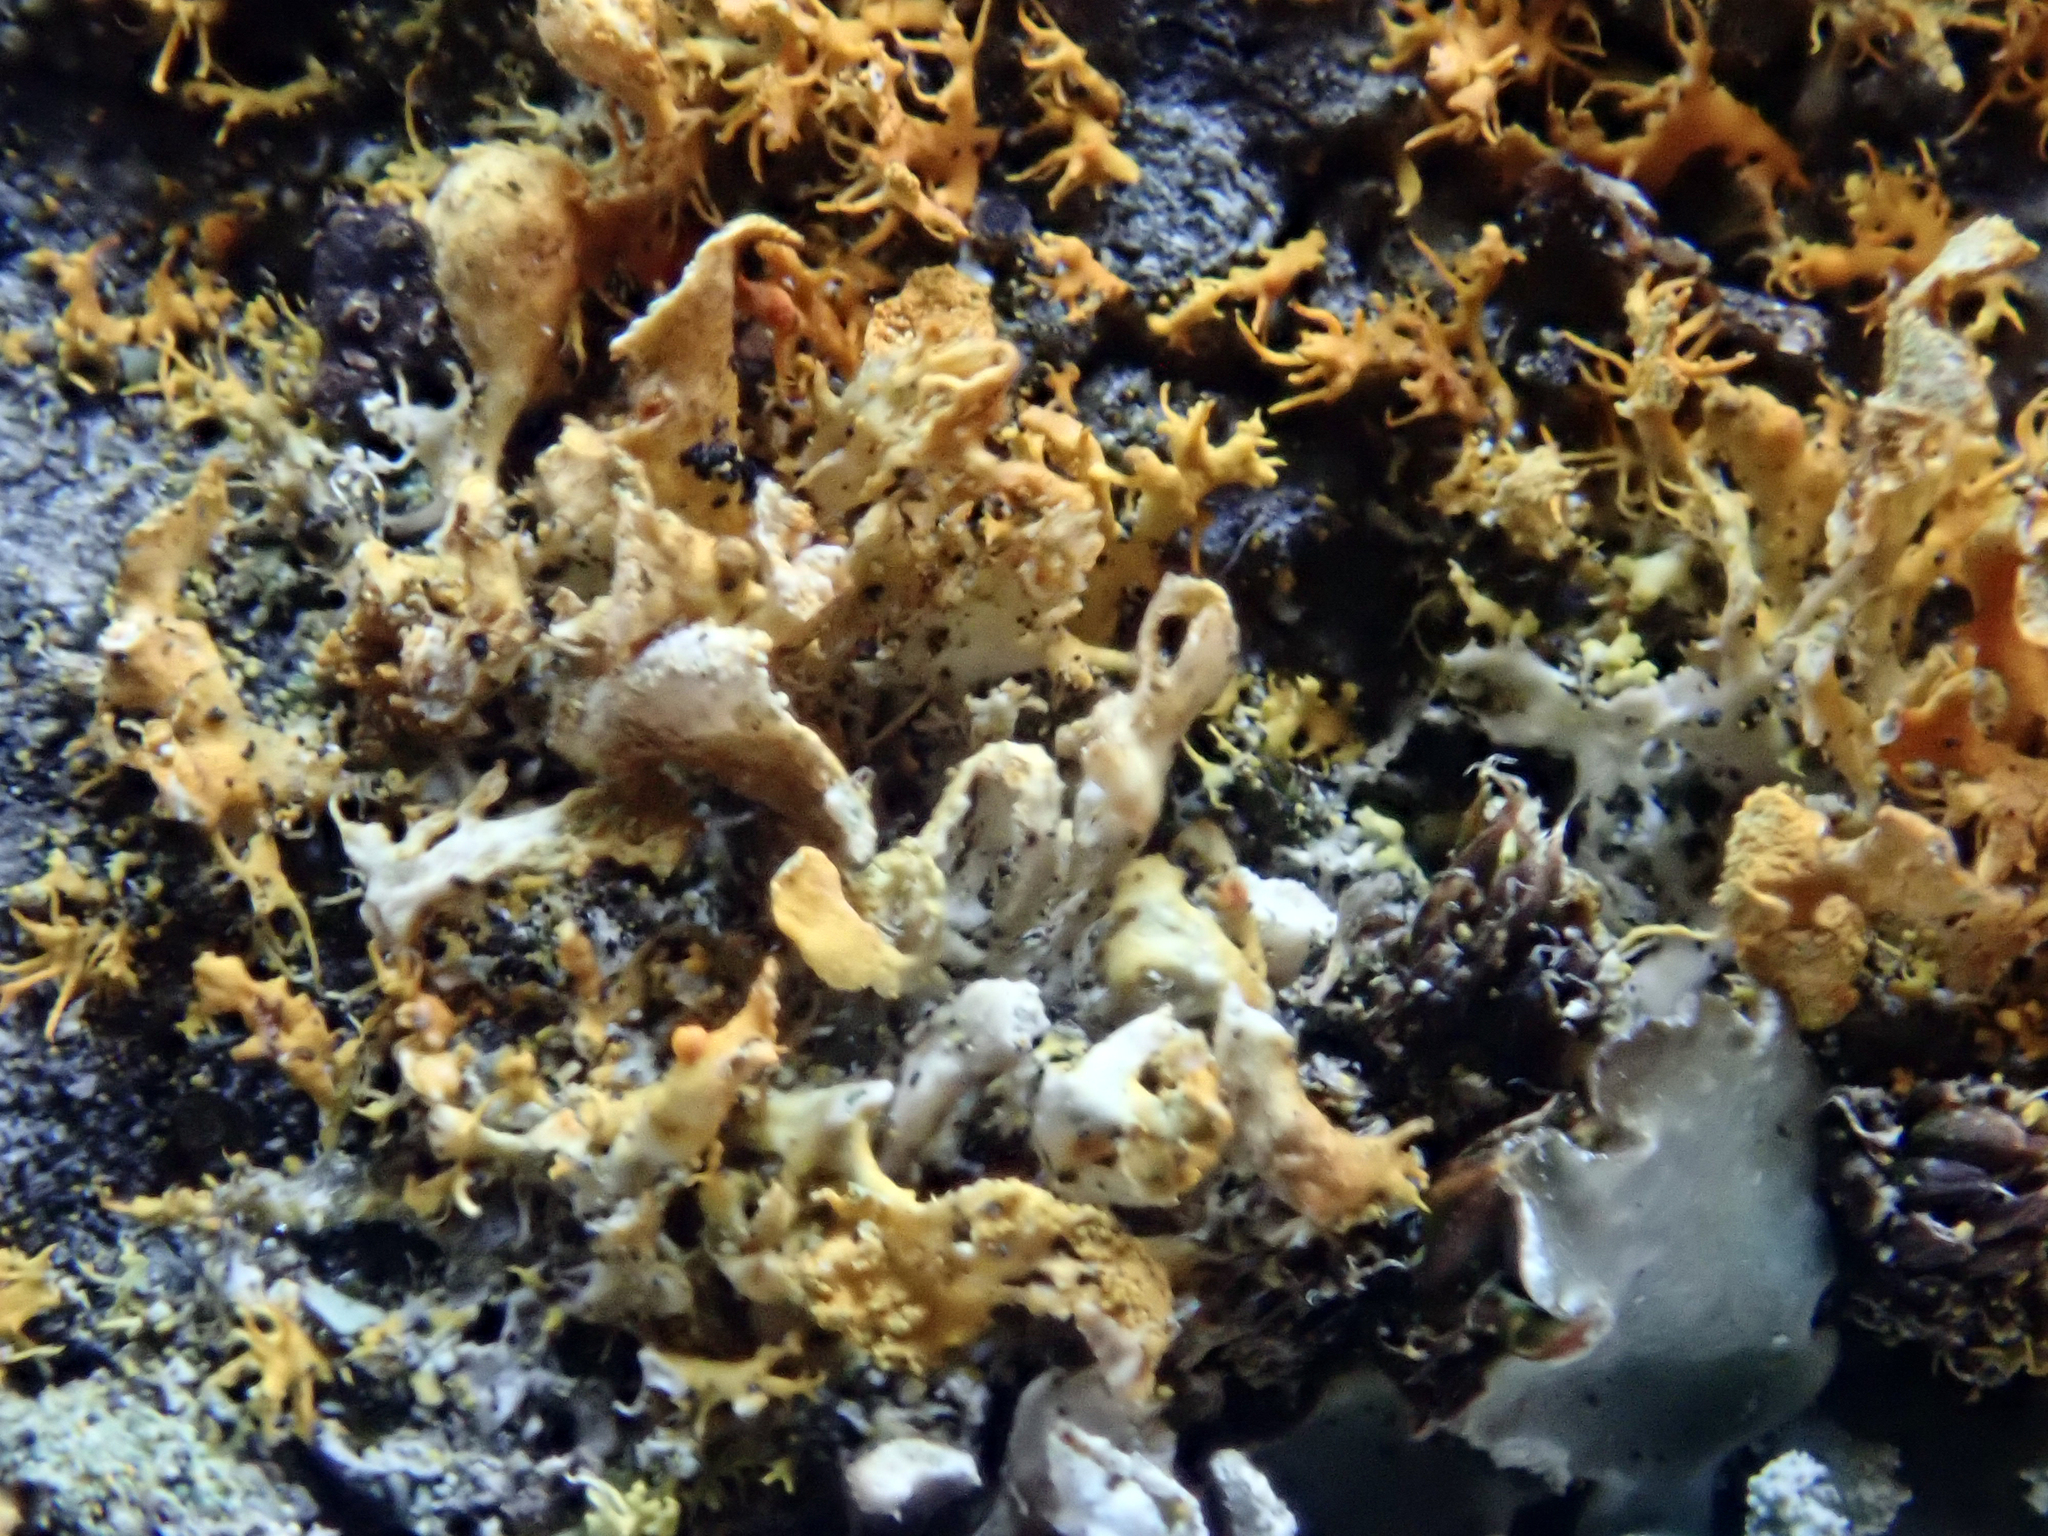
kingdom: Fungi
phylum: Ascomycota
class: Lecanoromycetes
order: Teloschistales
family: Teloschistaceae
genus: Teloschistes
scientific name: Teloschistes velifer
